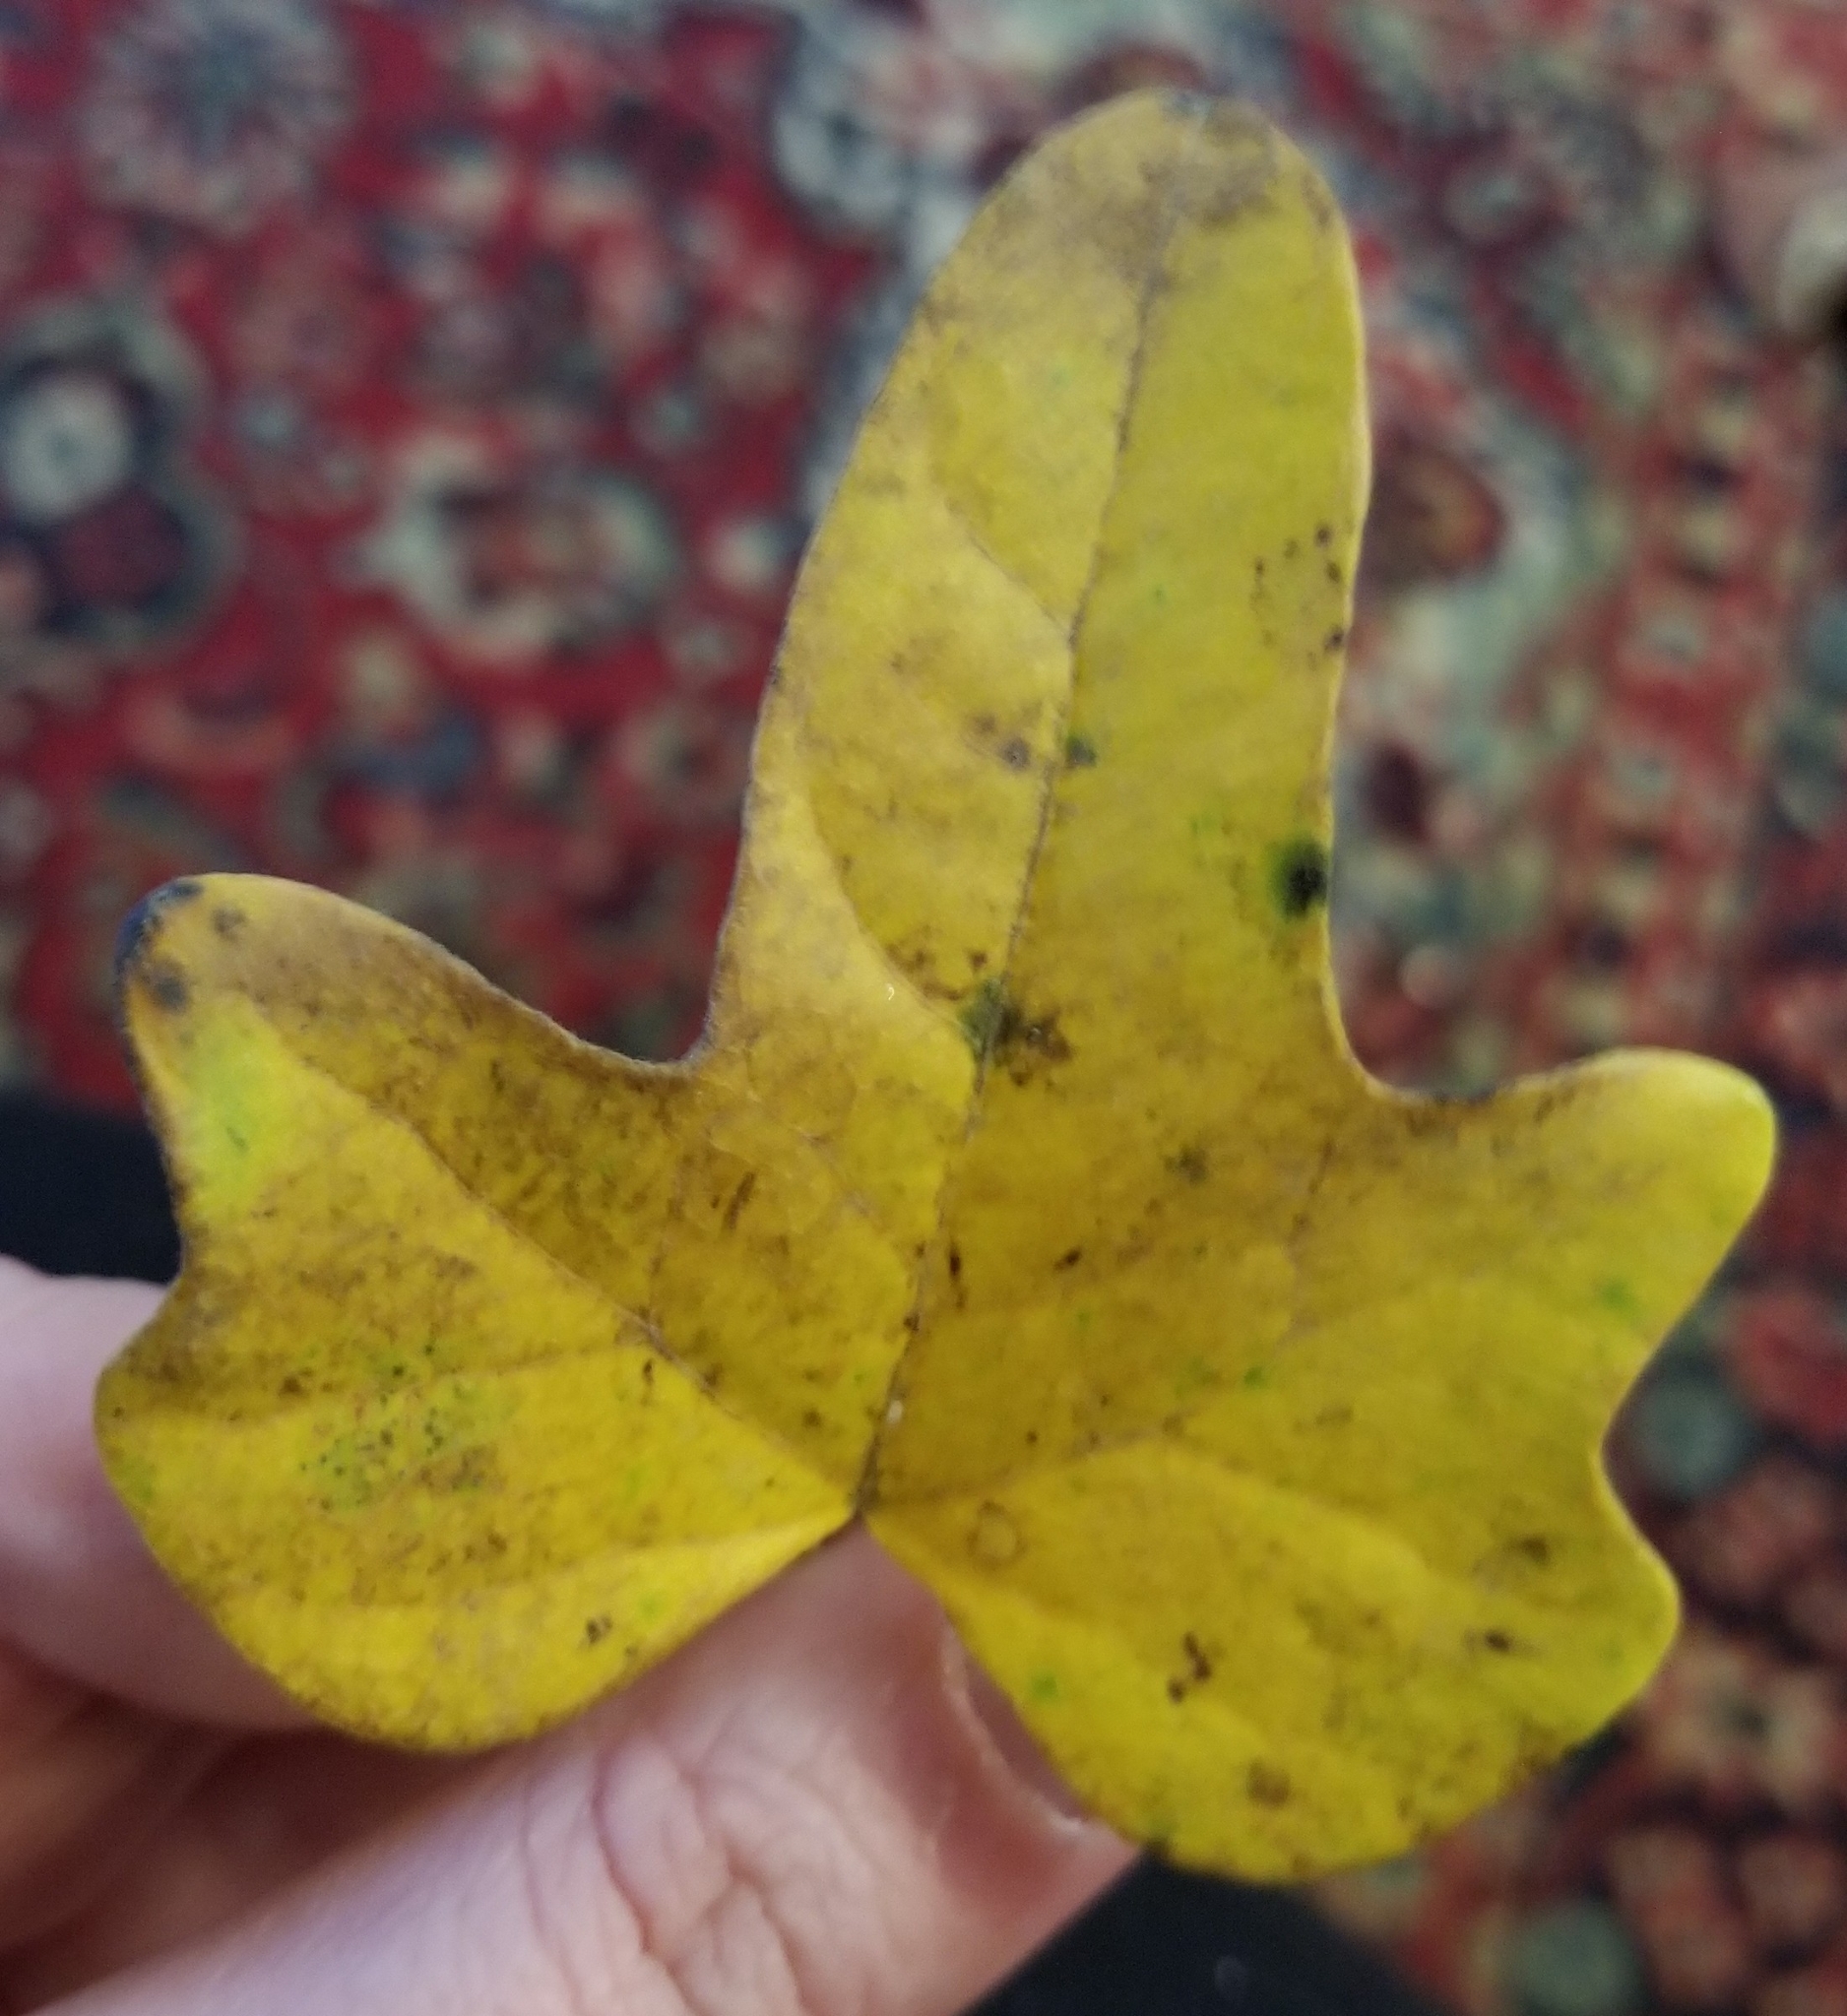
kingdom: Plantae
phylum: Tracheophyta
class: Magnoliopsida
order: Ranunculales
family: Menispermaceae
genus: Cocculus
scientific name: Cocculus carolinus
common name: Carolina moonseed
